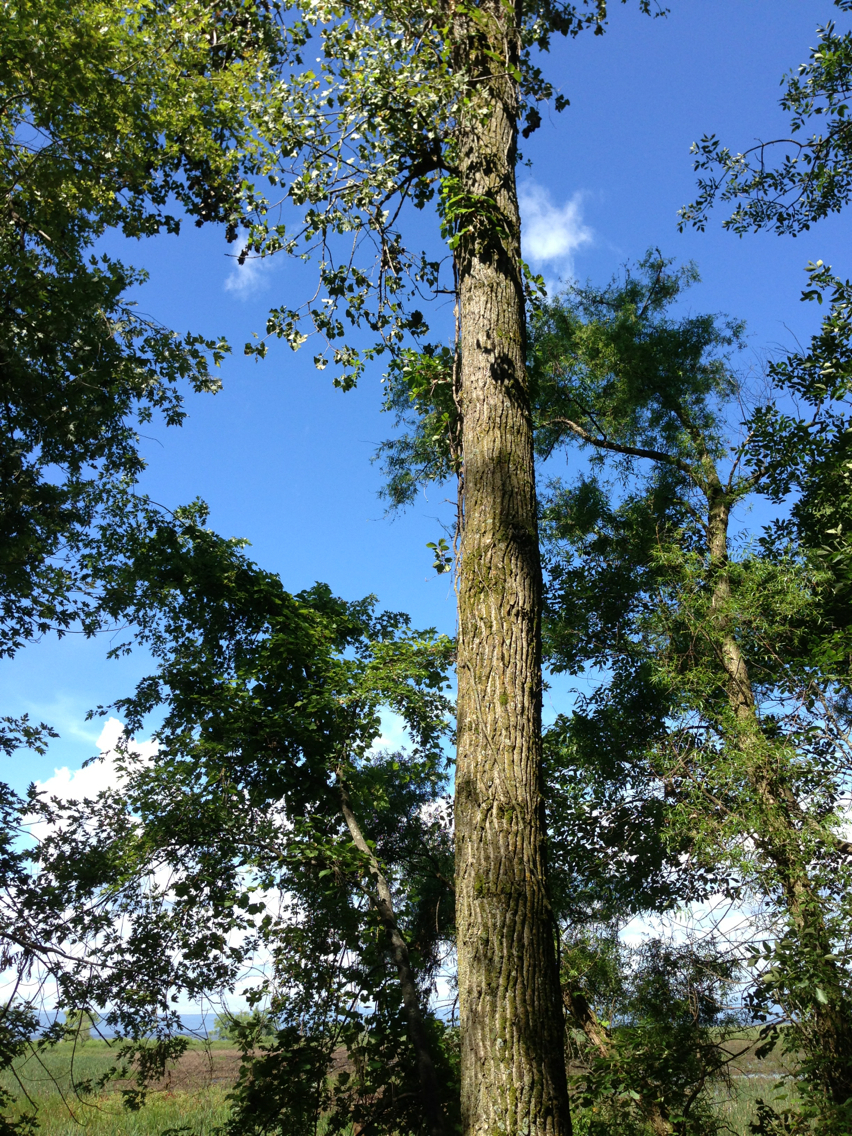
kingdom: Plantae
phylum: Tracheophyta
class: Magnoliopsida
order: Malpighiales
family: Salicaceae
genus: Populus
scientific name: Populus deltoides
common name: Eastern cottonwood
